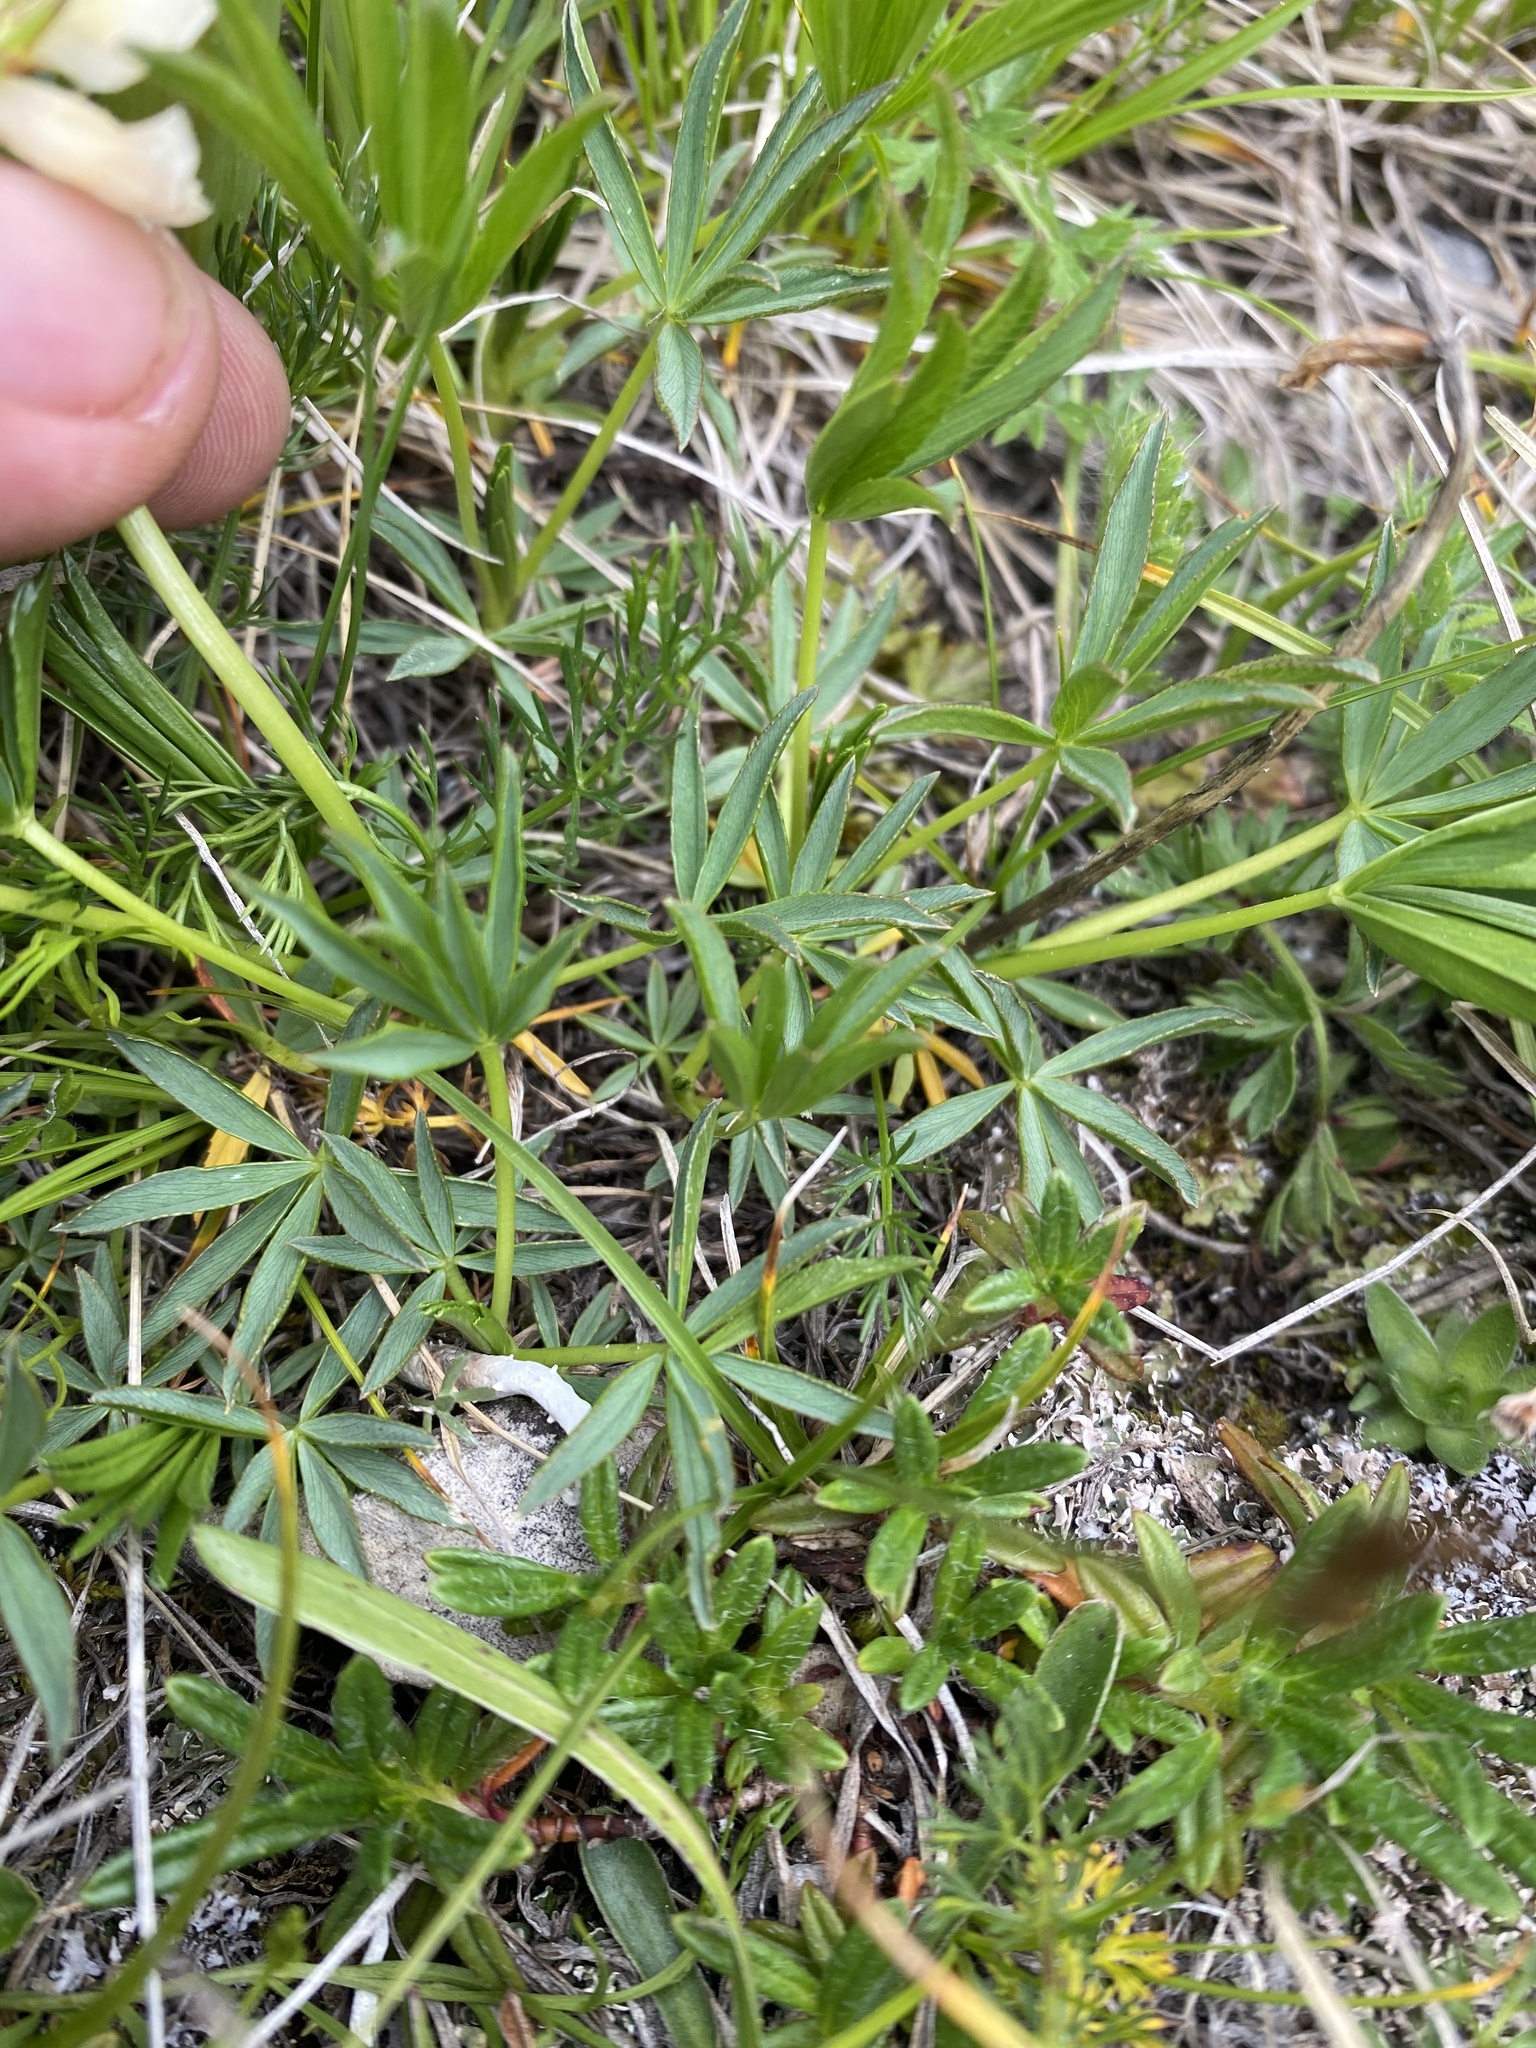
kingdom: Plantae
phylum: Tracheophyta
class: Magnoliopsida
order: Fabales
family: Fabaceae
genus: Trifolium
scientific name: Trifolium polyphyllum
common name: Many-leaf clover
